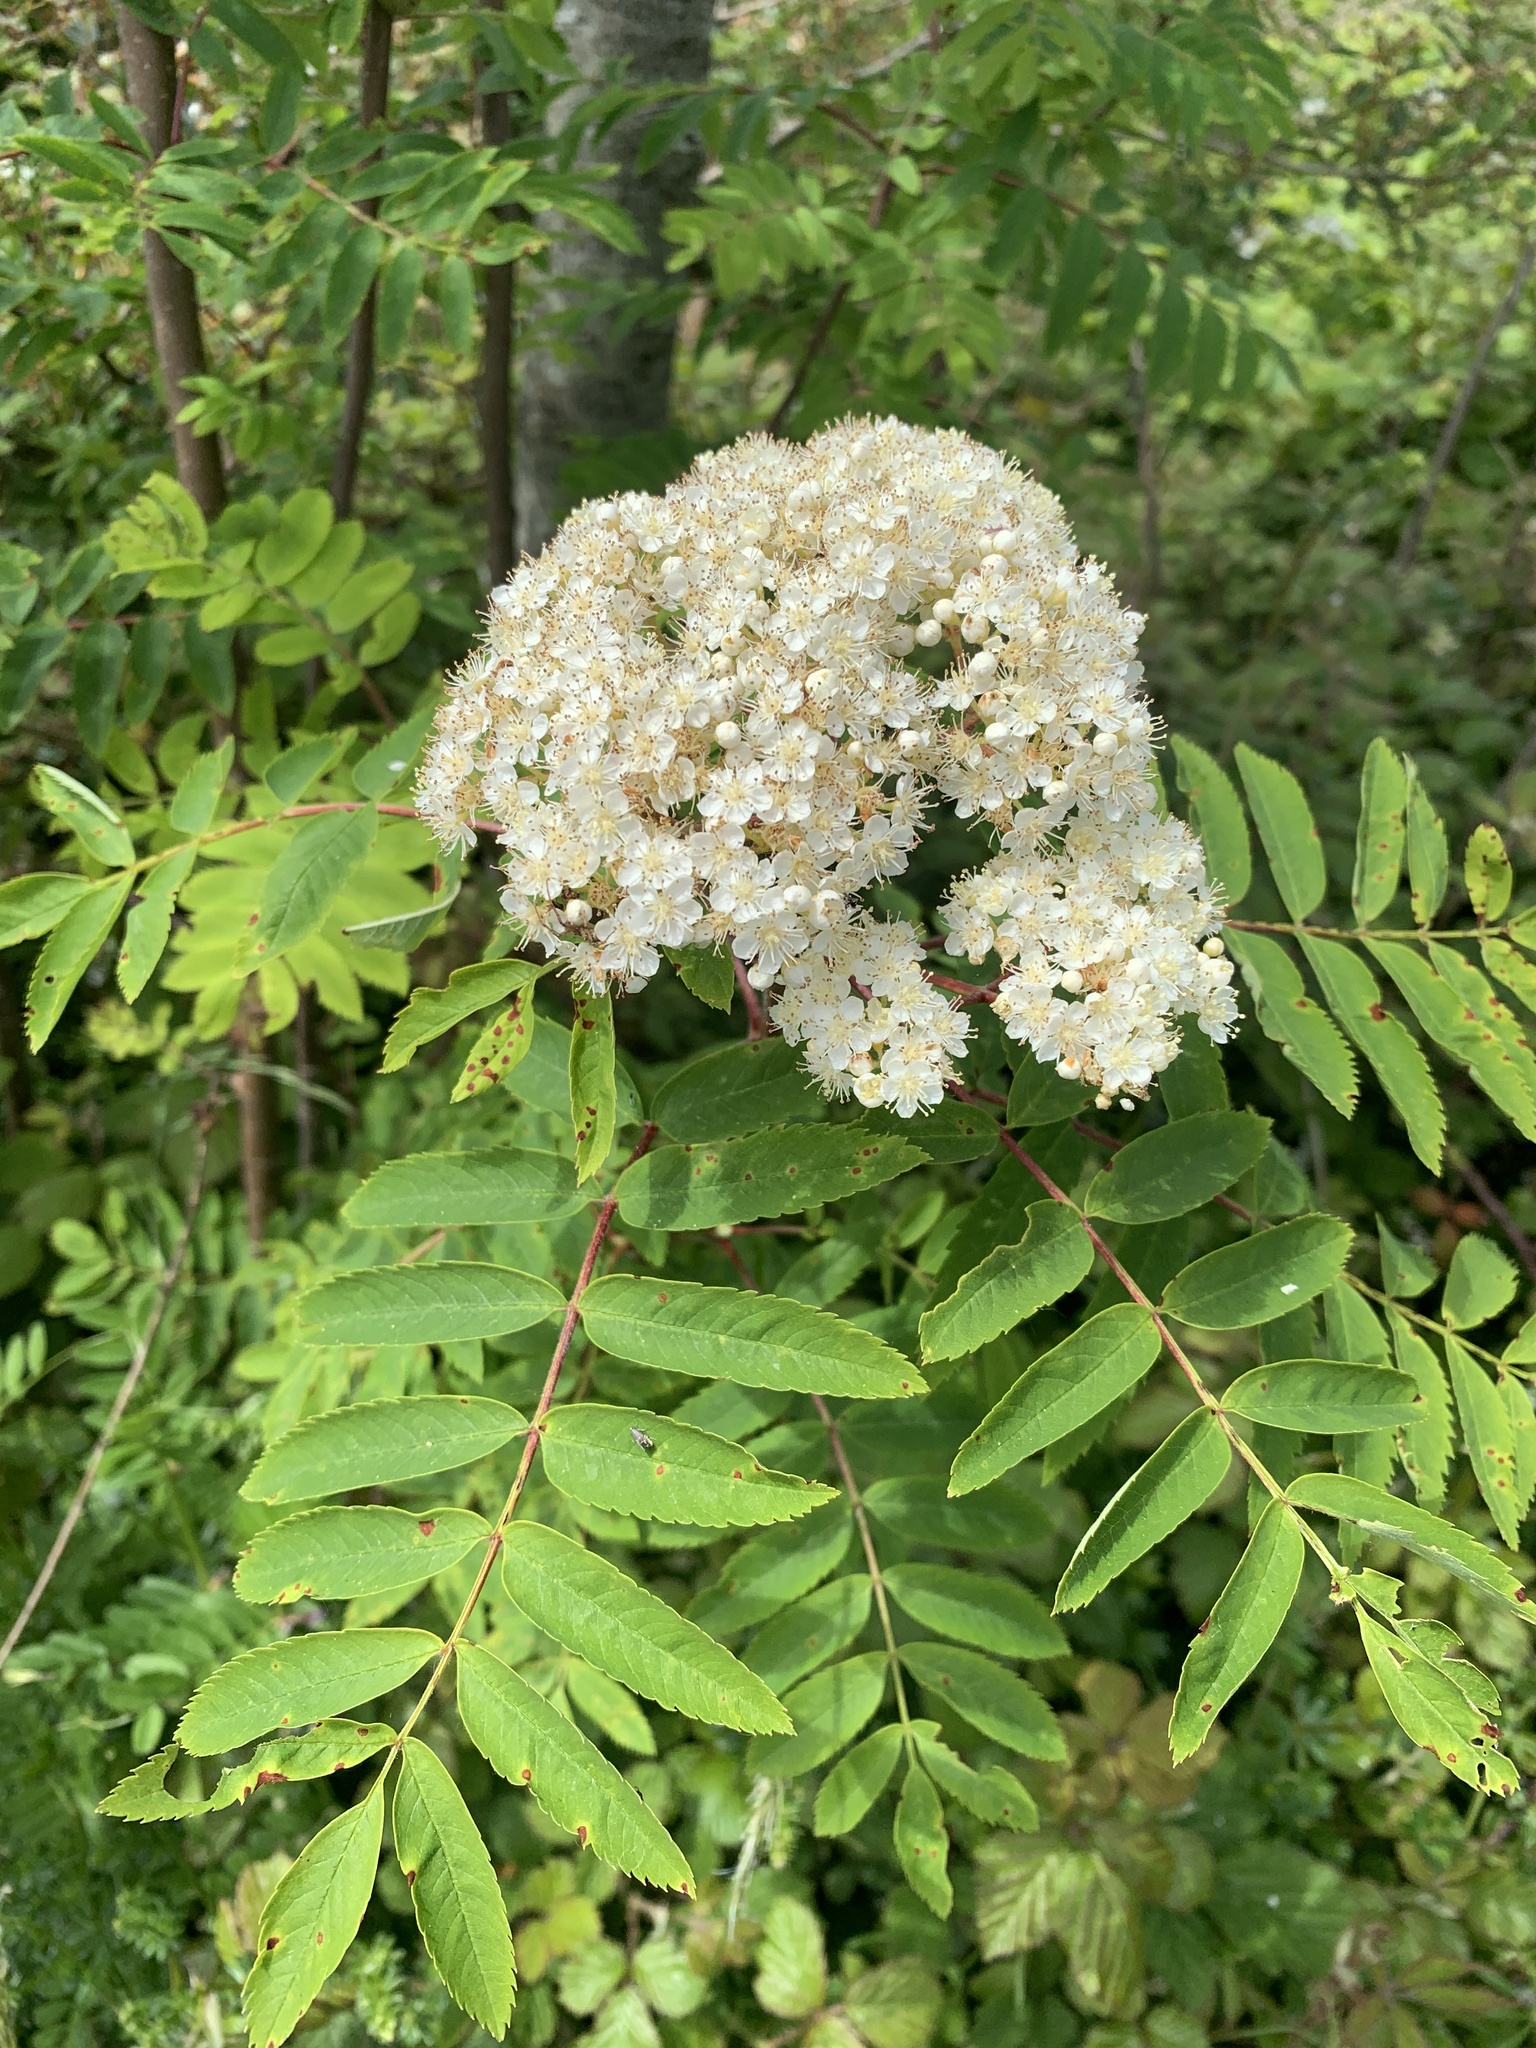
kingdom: Plantae
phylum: Tracheophyta
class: Magnoliopsida
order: Rosales
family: Rosaceae
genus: Sorbus
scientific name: Sorbus aucuparia
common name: Rowan
